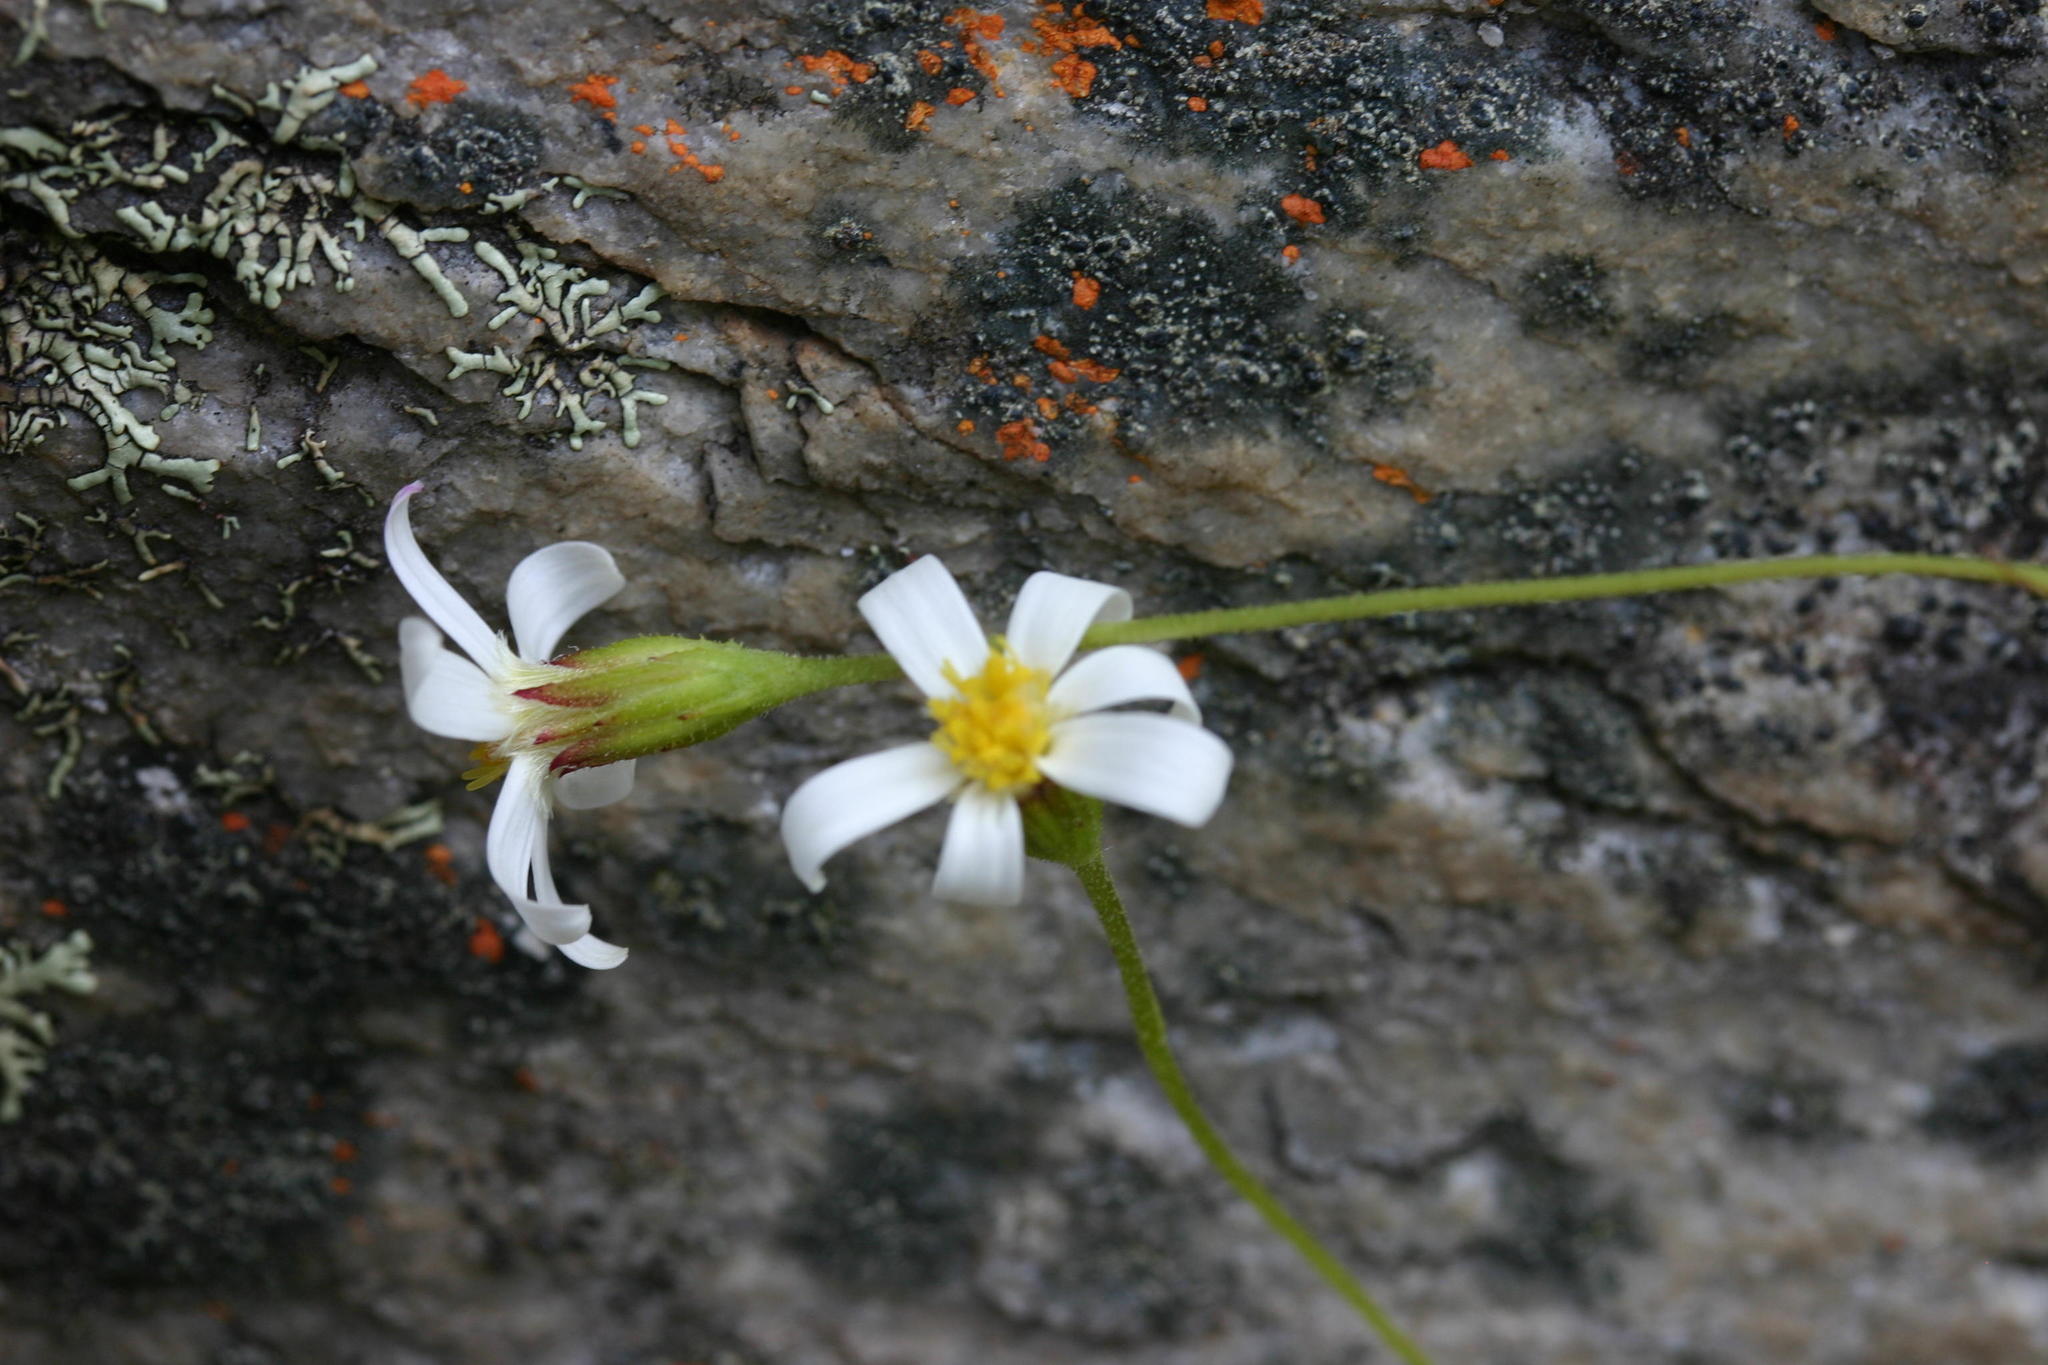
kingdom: Plantae
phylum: Tracheophyta
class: Magnoliopsida
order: Asterales
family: Asteraceae
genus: Afroaster
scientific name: Afroaster bowiei
